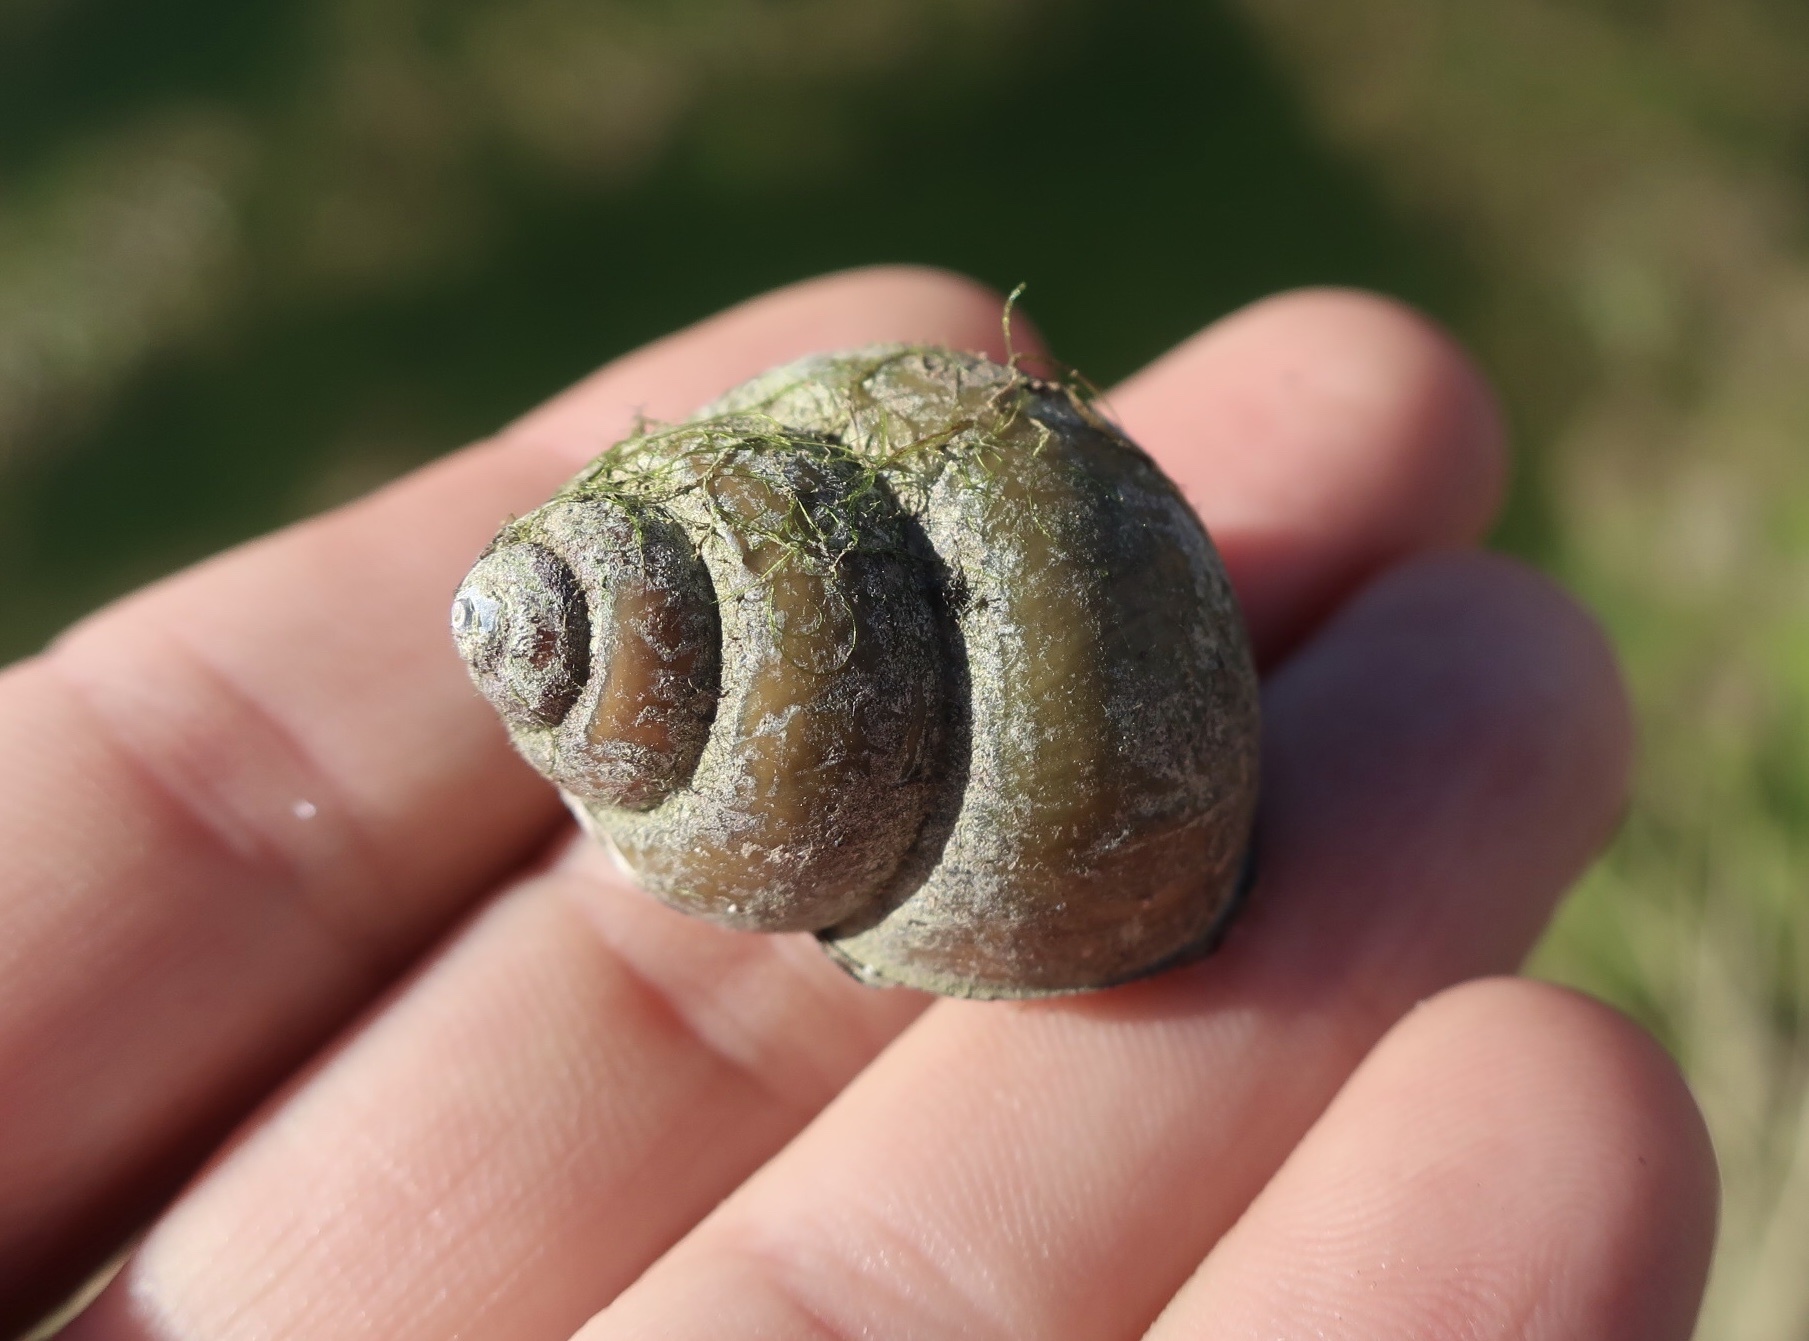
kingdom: Animalia
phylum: Mollusca
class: Gastropoda
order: Architaenioglossa
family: Viviparidae
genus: Cipangopaludina
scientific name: Cipangopaludina chinensis
